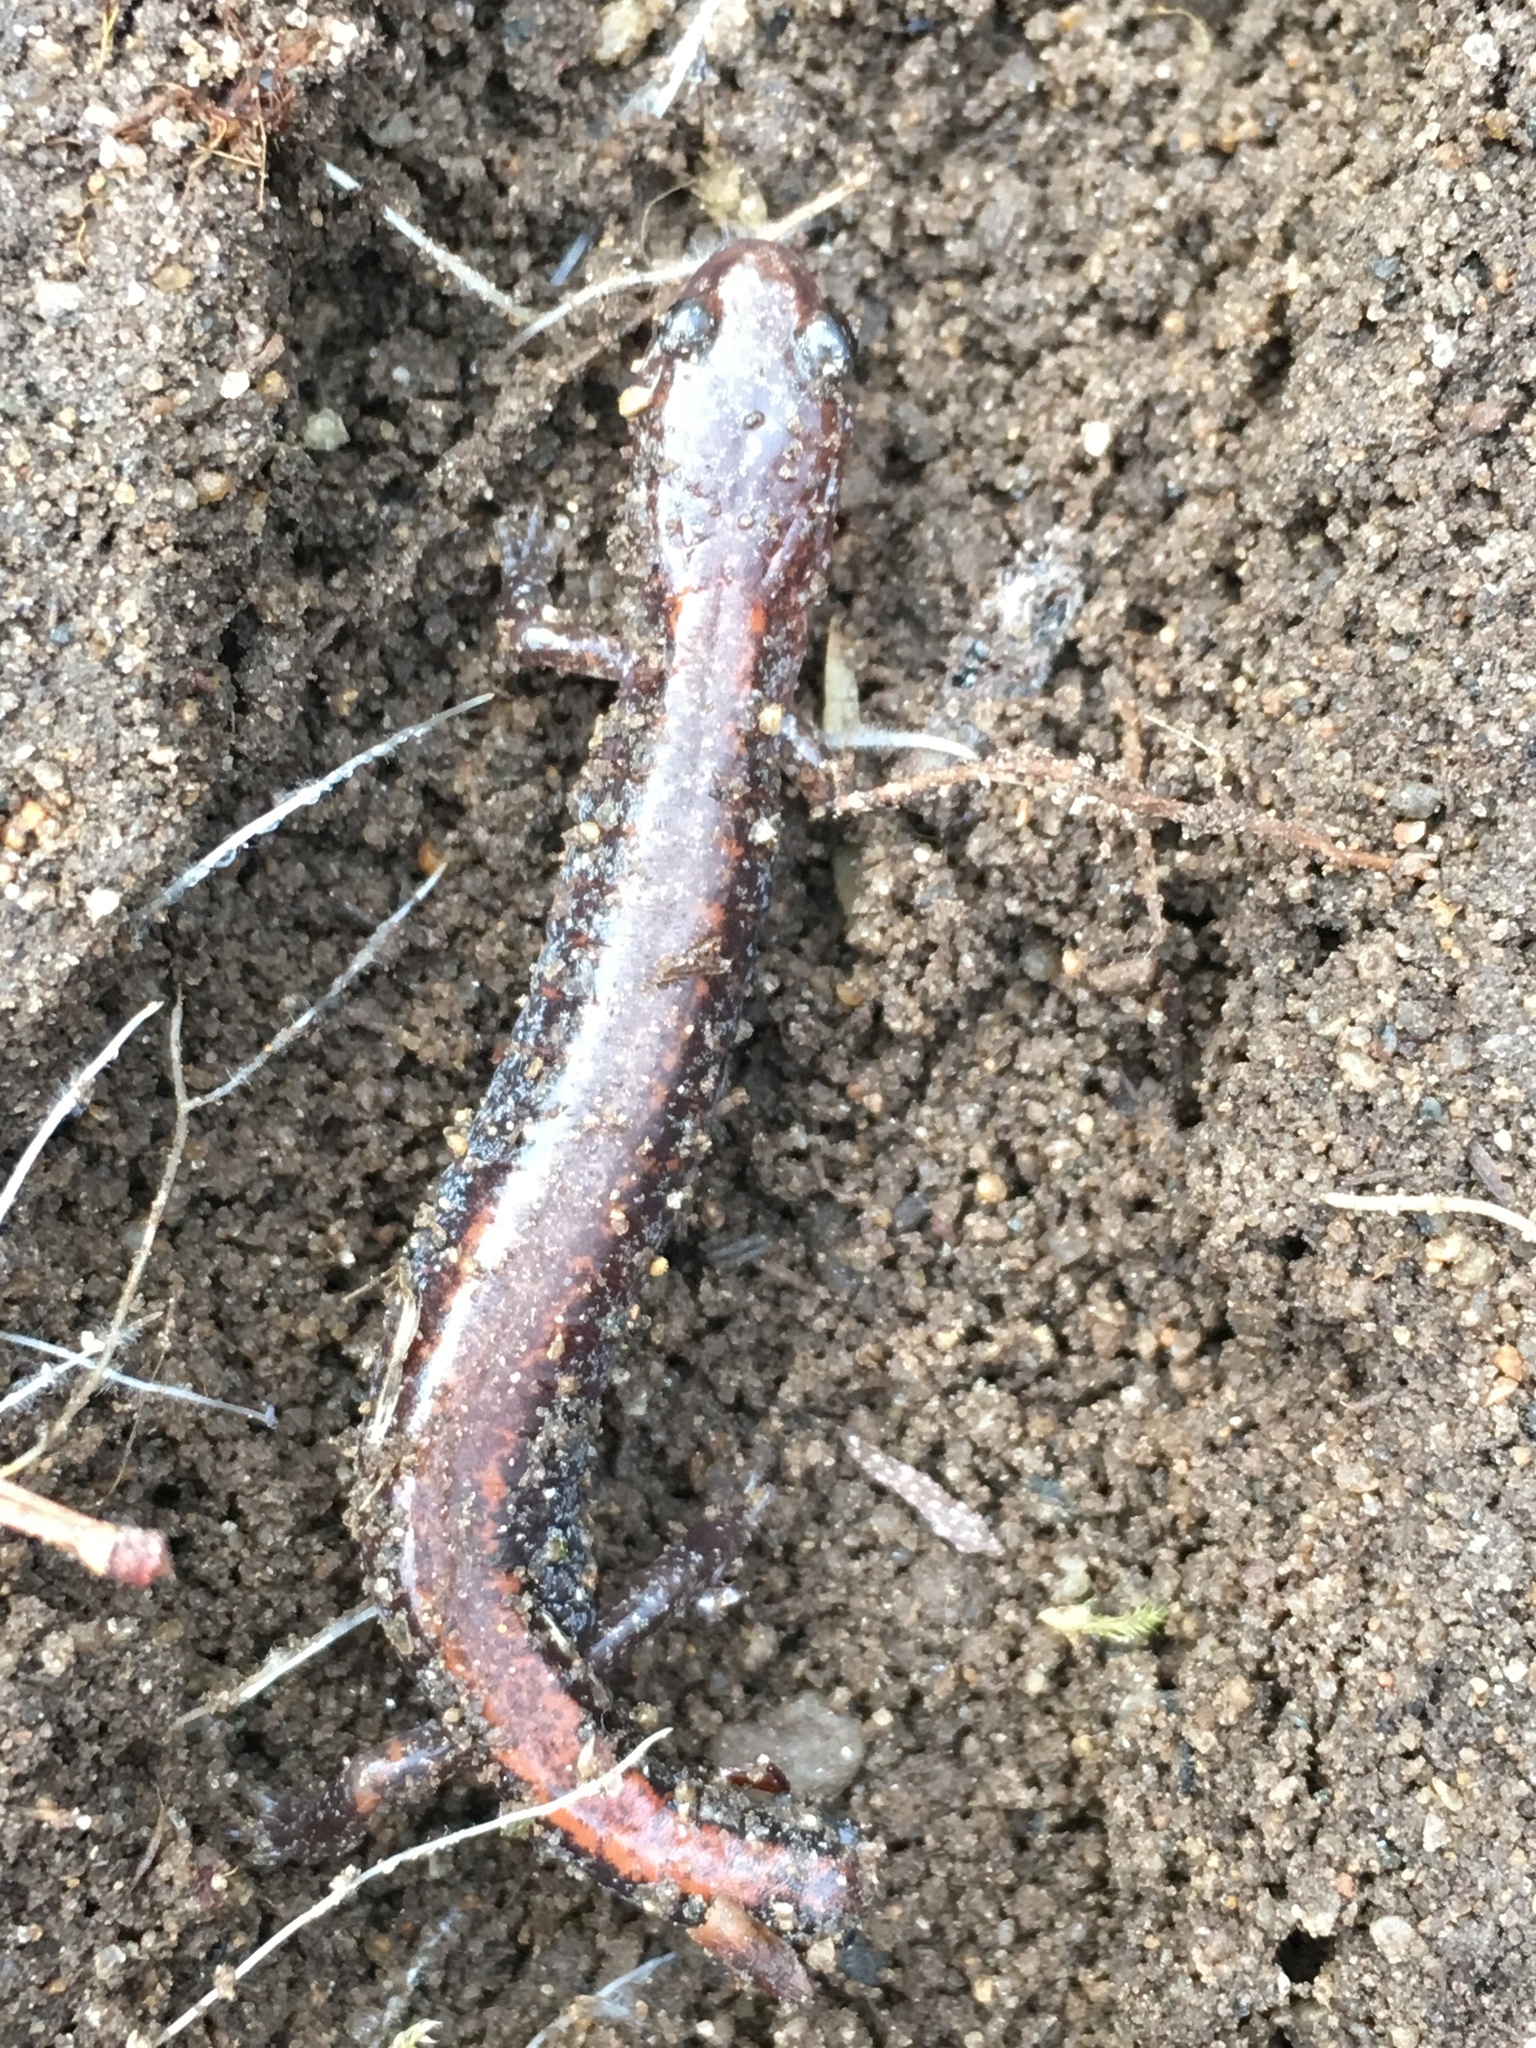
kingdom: Animalia
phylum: Chordata
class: Amphibia
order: Caudata
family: Plethodontidae
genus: Plethodon
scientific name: Plethodon cinereus
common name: Redback salamander
